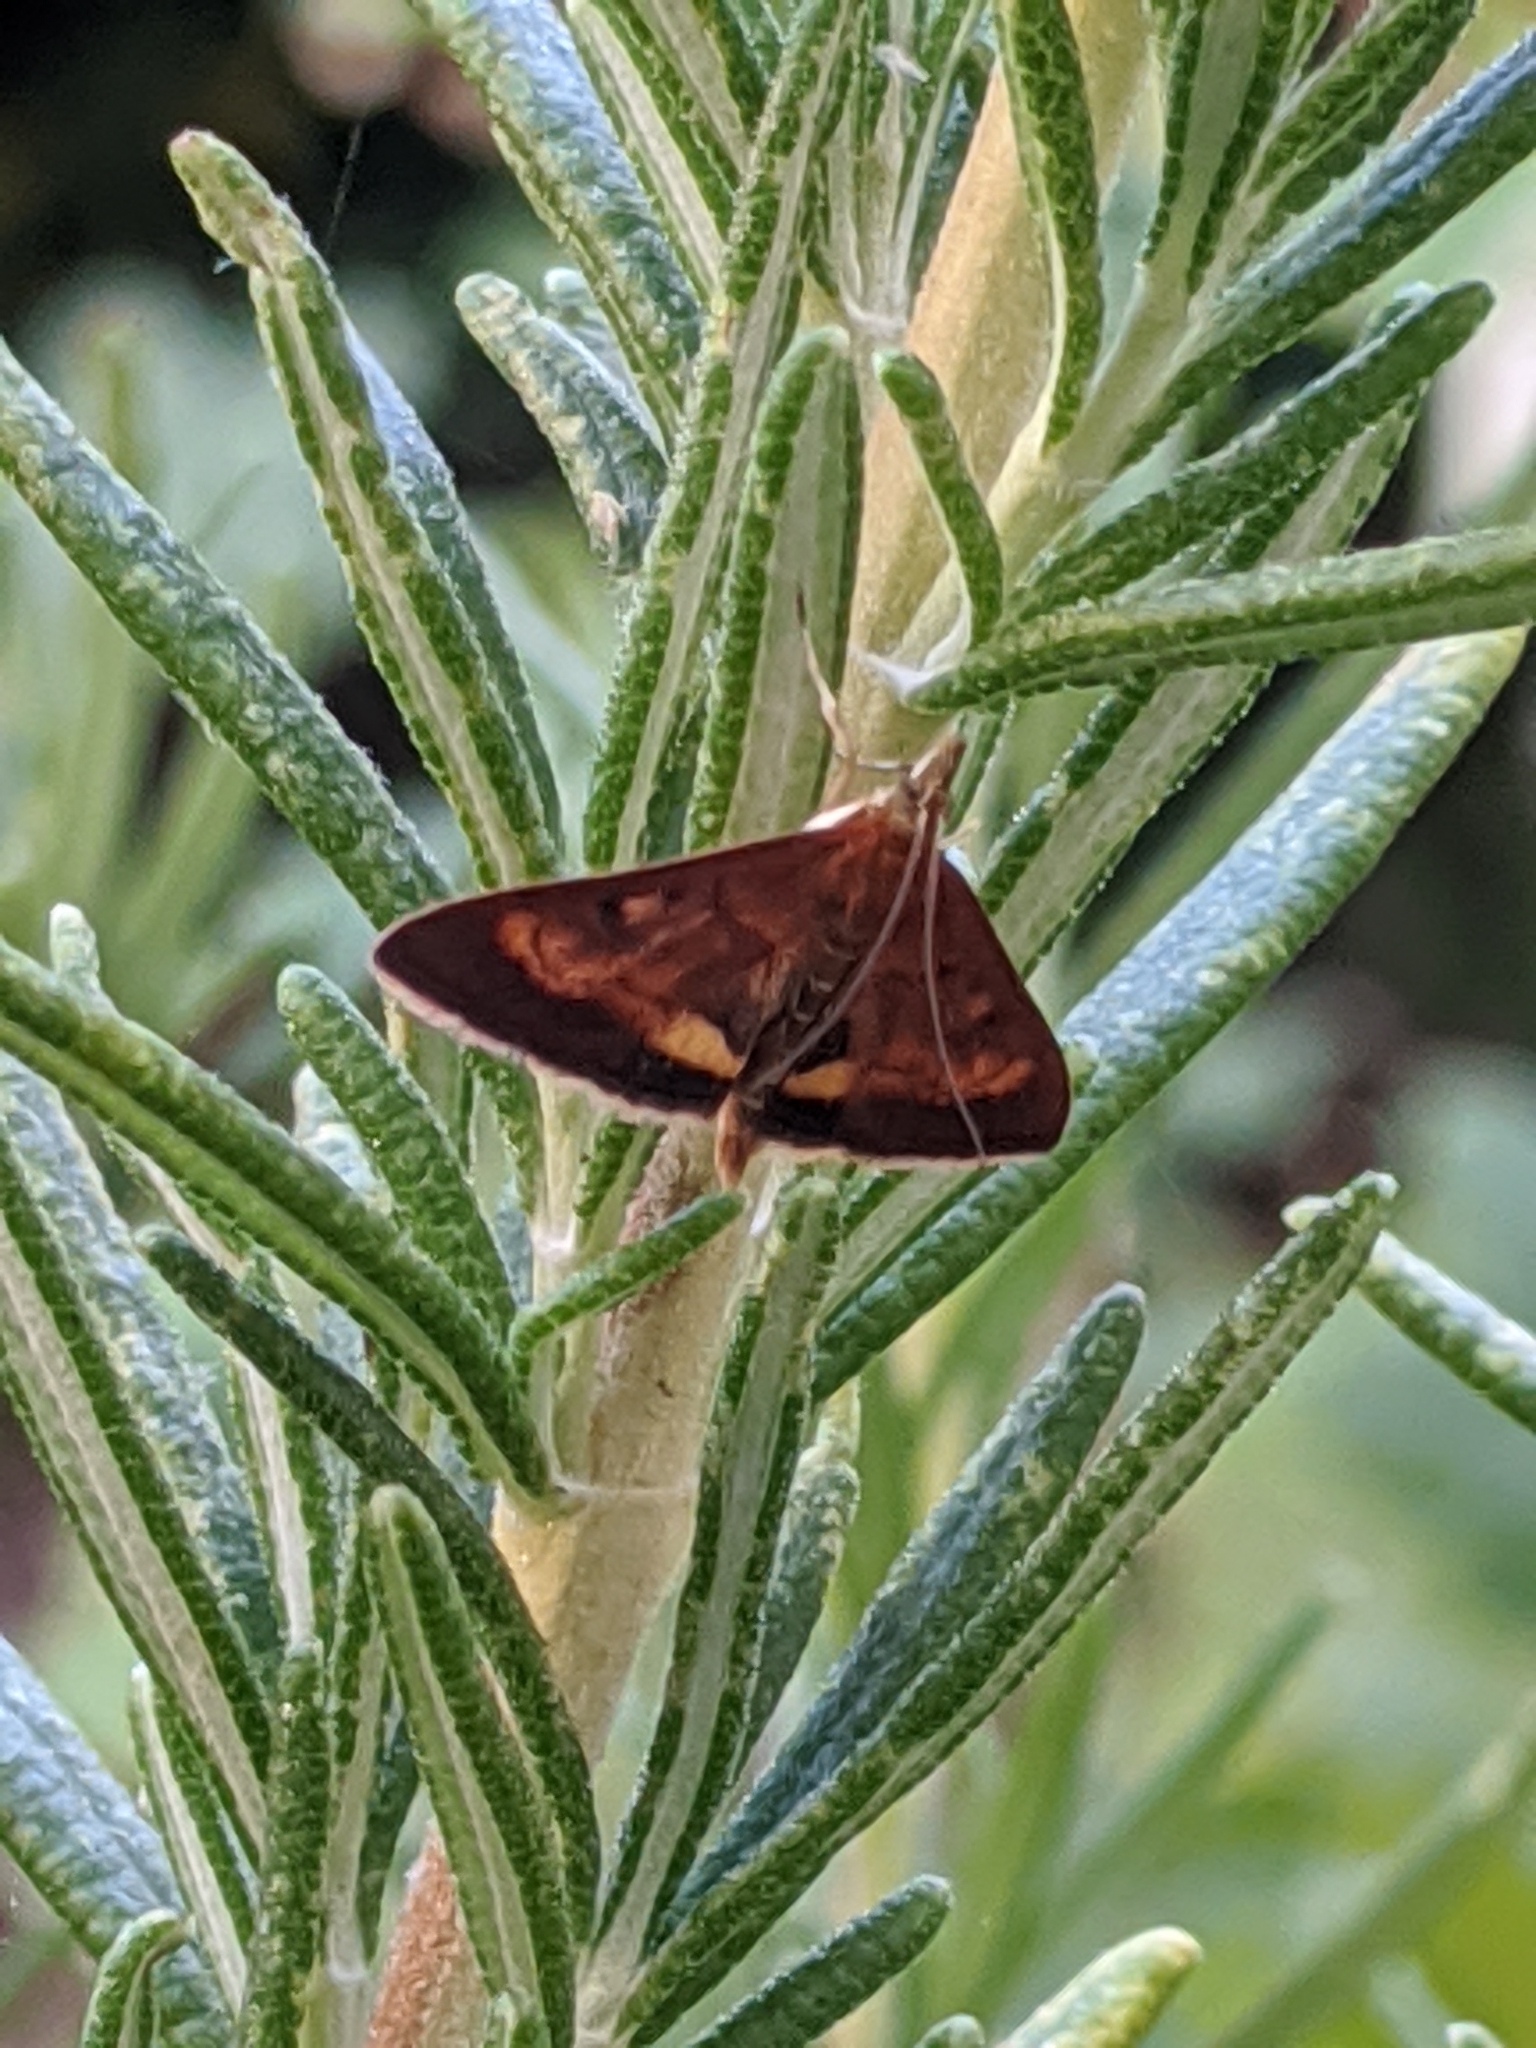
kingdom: Animalia
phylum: Arthropoda
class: Insecta
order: Lepidoptera
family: Crambidae
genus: Pyrausta
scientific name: Pyrausta californicalis
